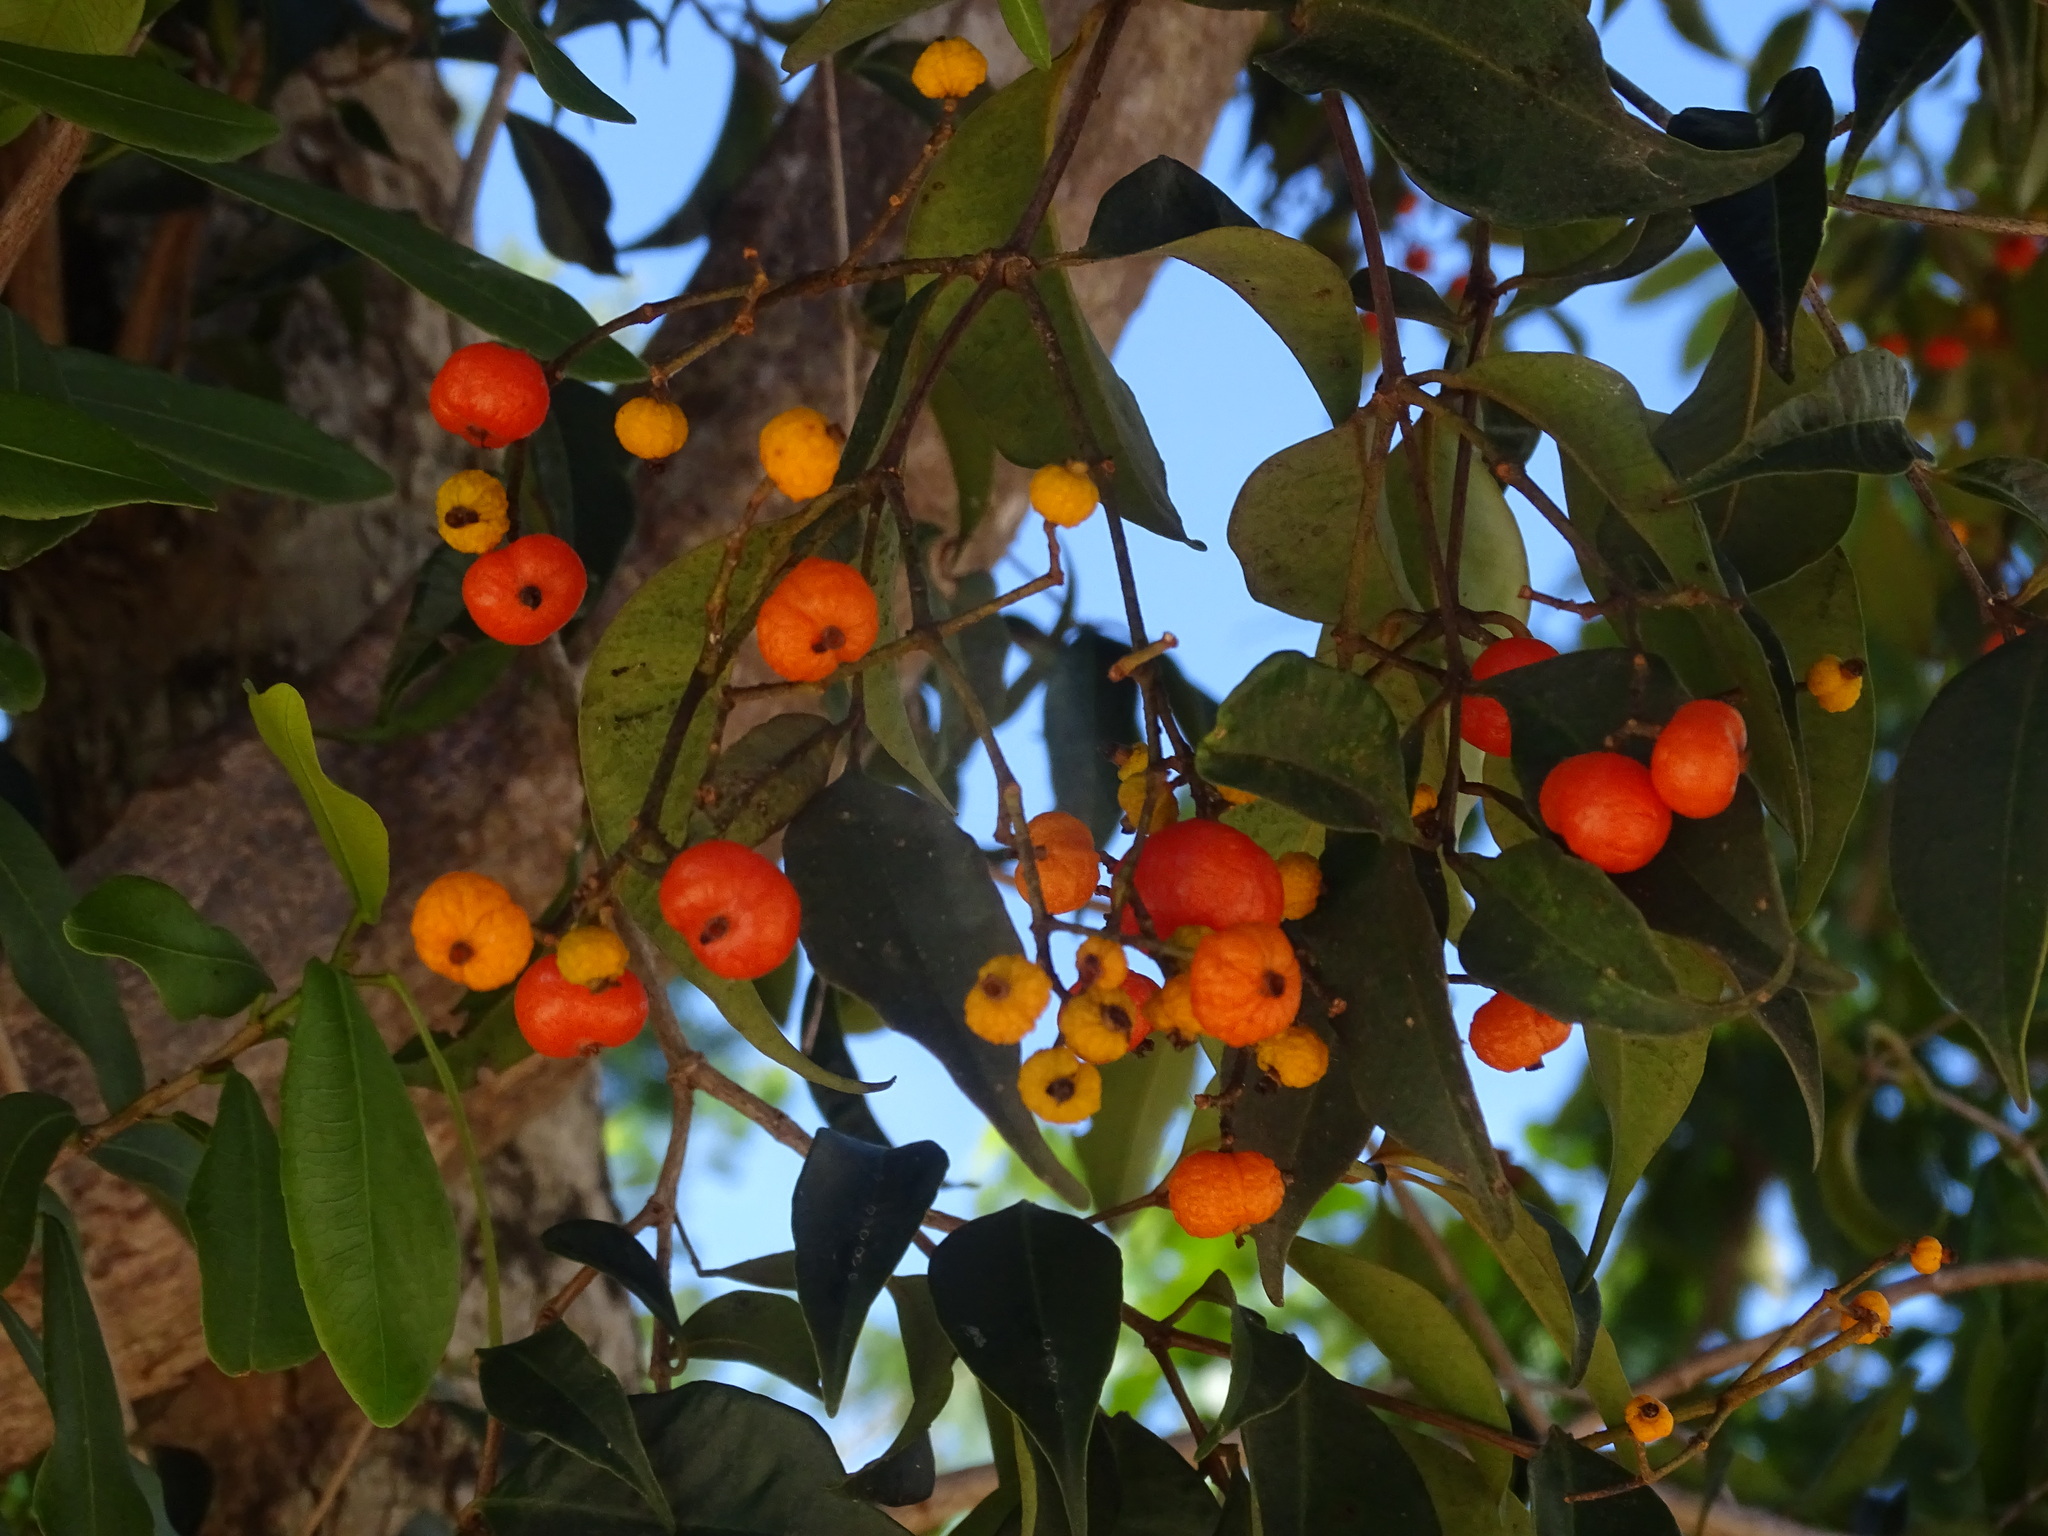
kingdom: Plantae
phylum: Tracheophyta
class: Magnoliopsida
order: Myrtales
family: Myrtaceae
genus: Myrcia
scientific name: Myrcia chytraculia
